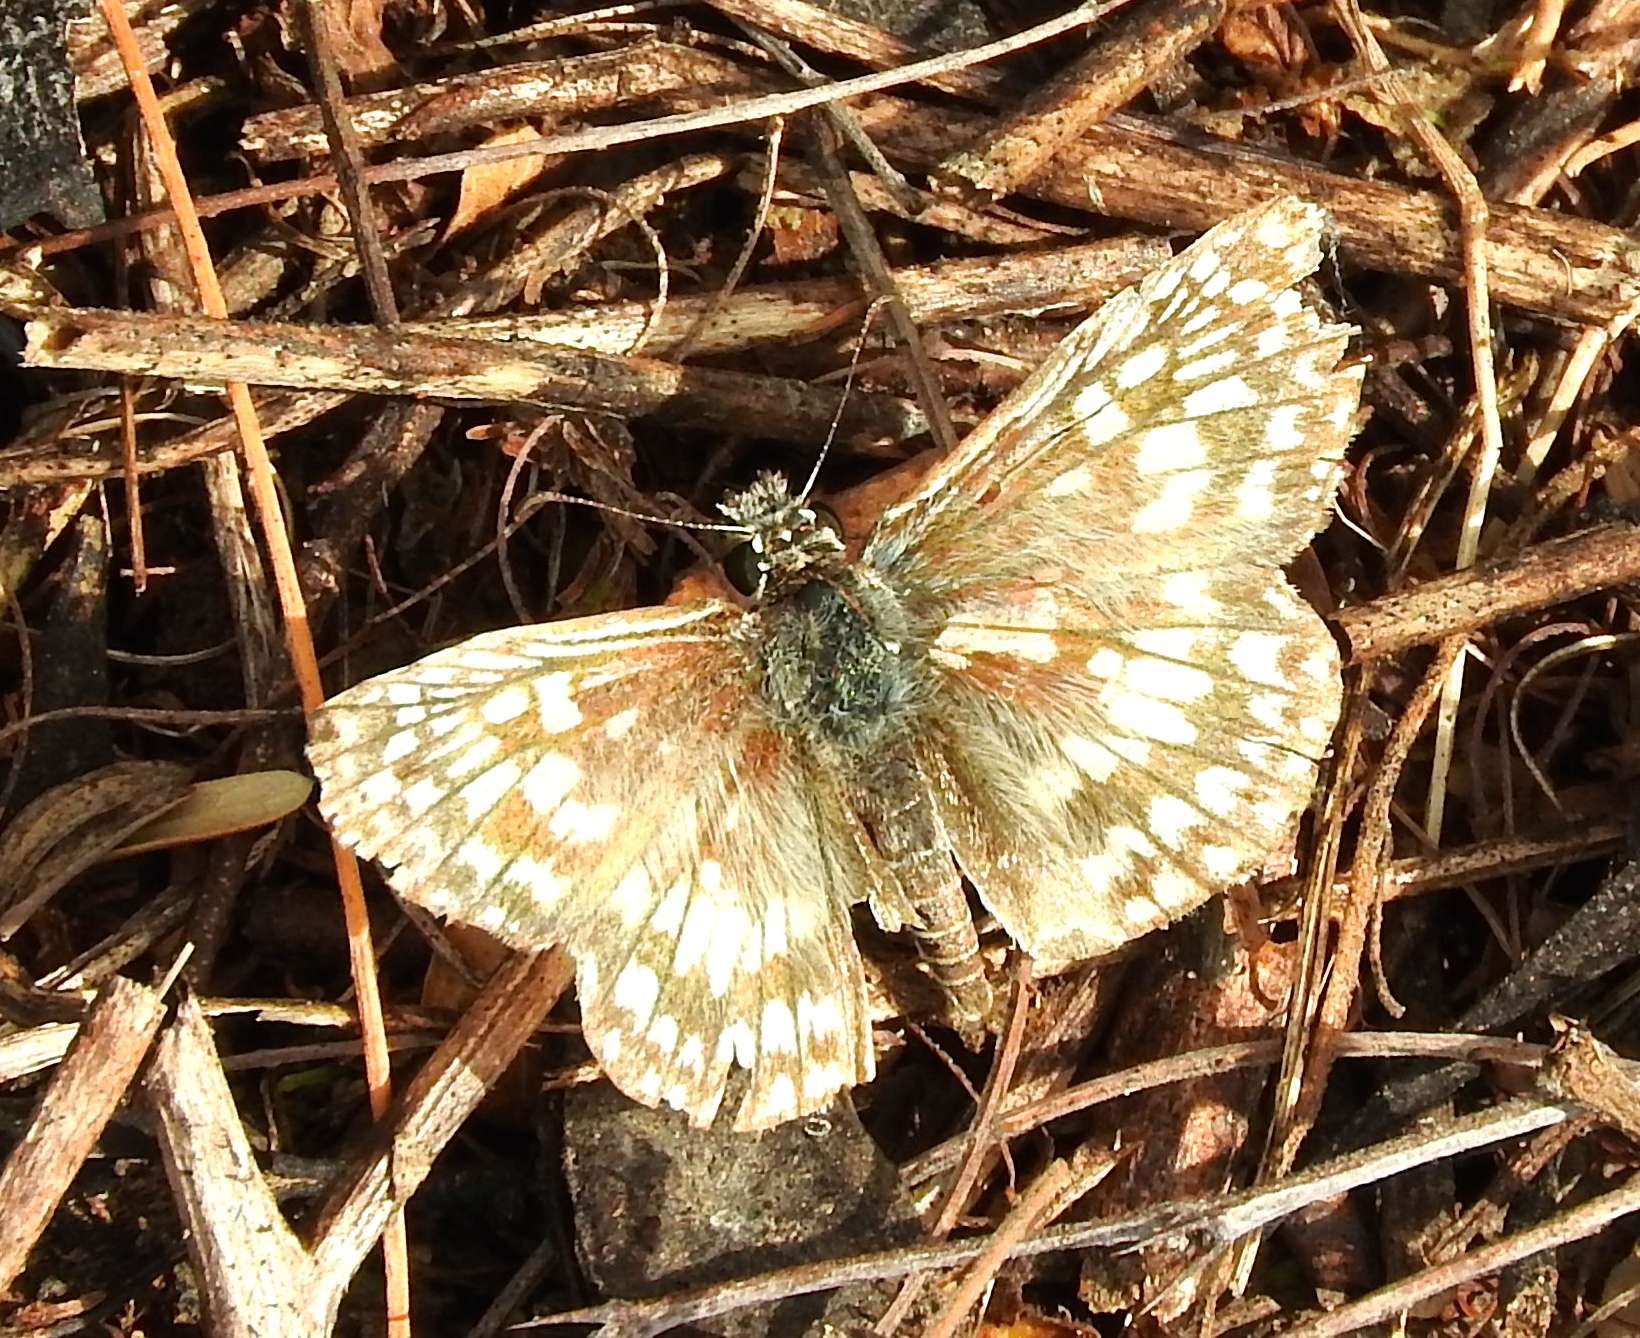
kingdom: Animalia
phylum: Arthropoda
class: Insecta
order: Lepidoptera
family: Hesperiidae
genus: Burnsius
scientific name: Burnsius
